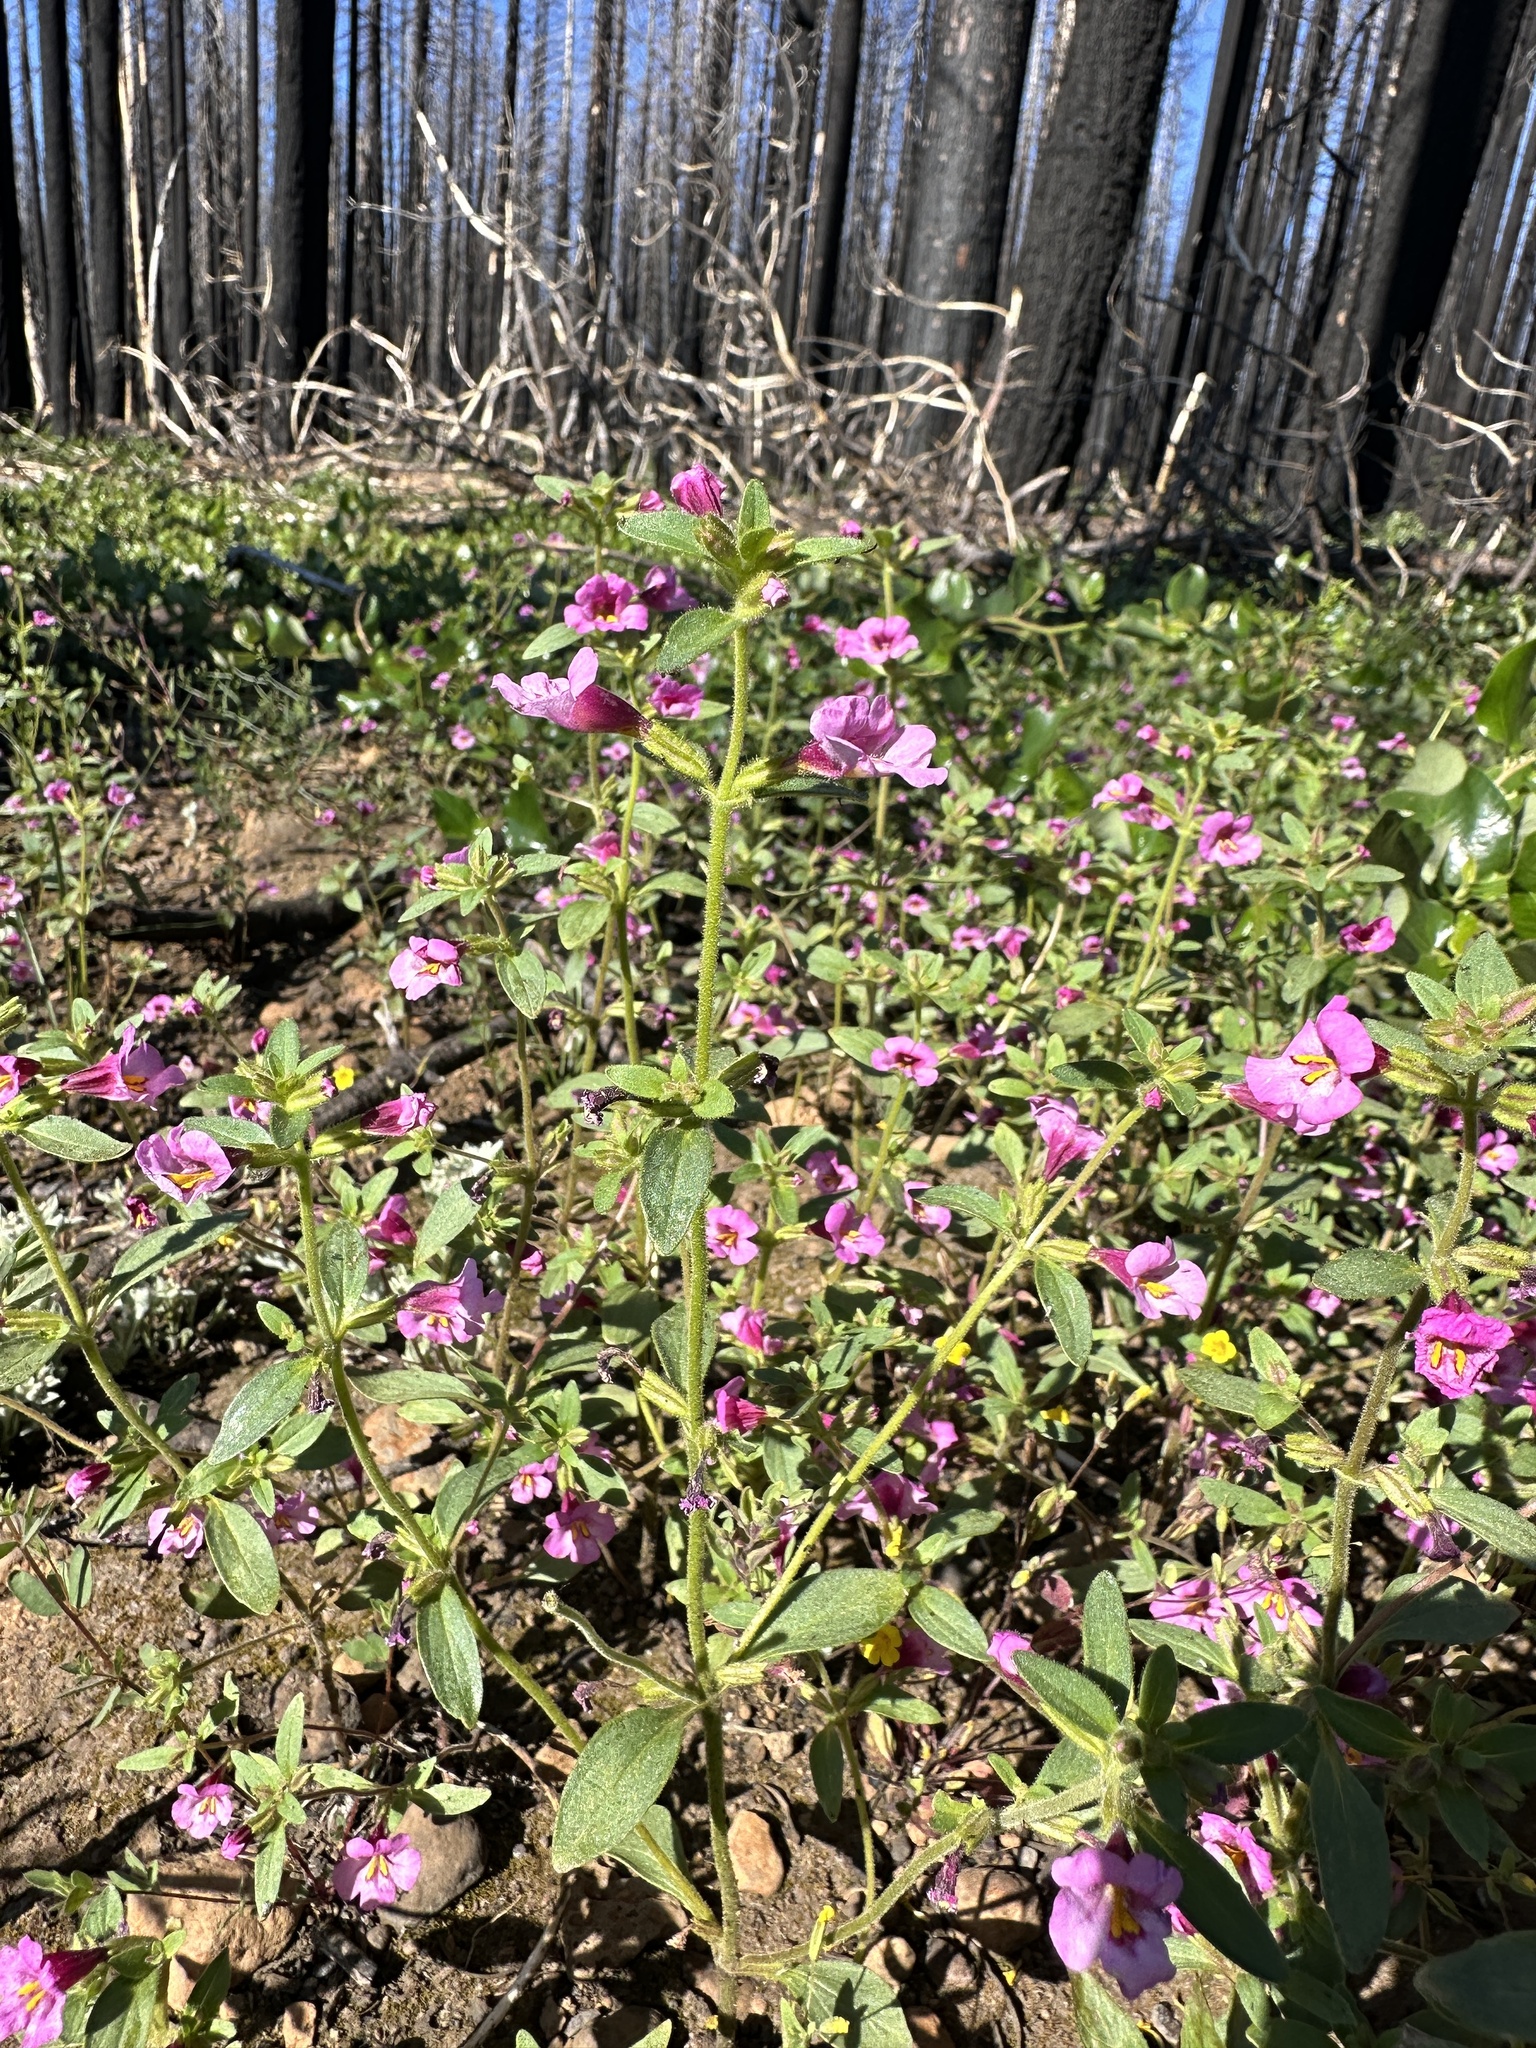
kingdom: Plantae
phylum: Tracheophyta
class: Magnoliopsida
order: Lamiales
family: Phrymaceae
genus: Diplacus
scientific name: Diplacus torreyi
